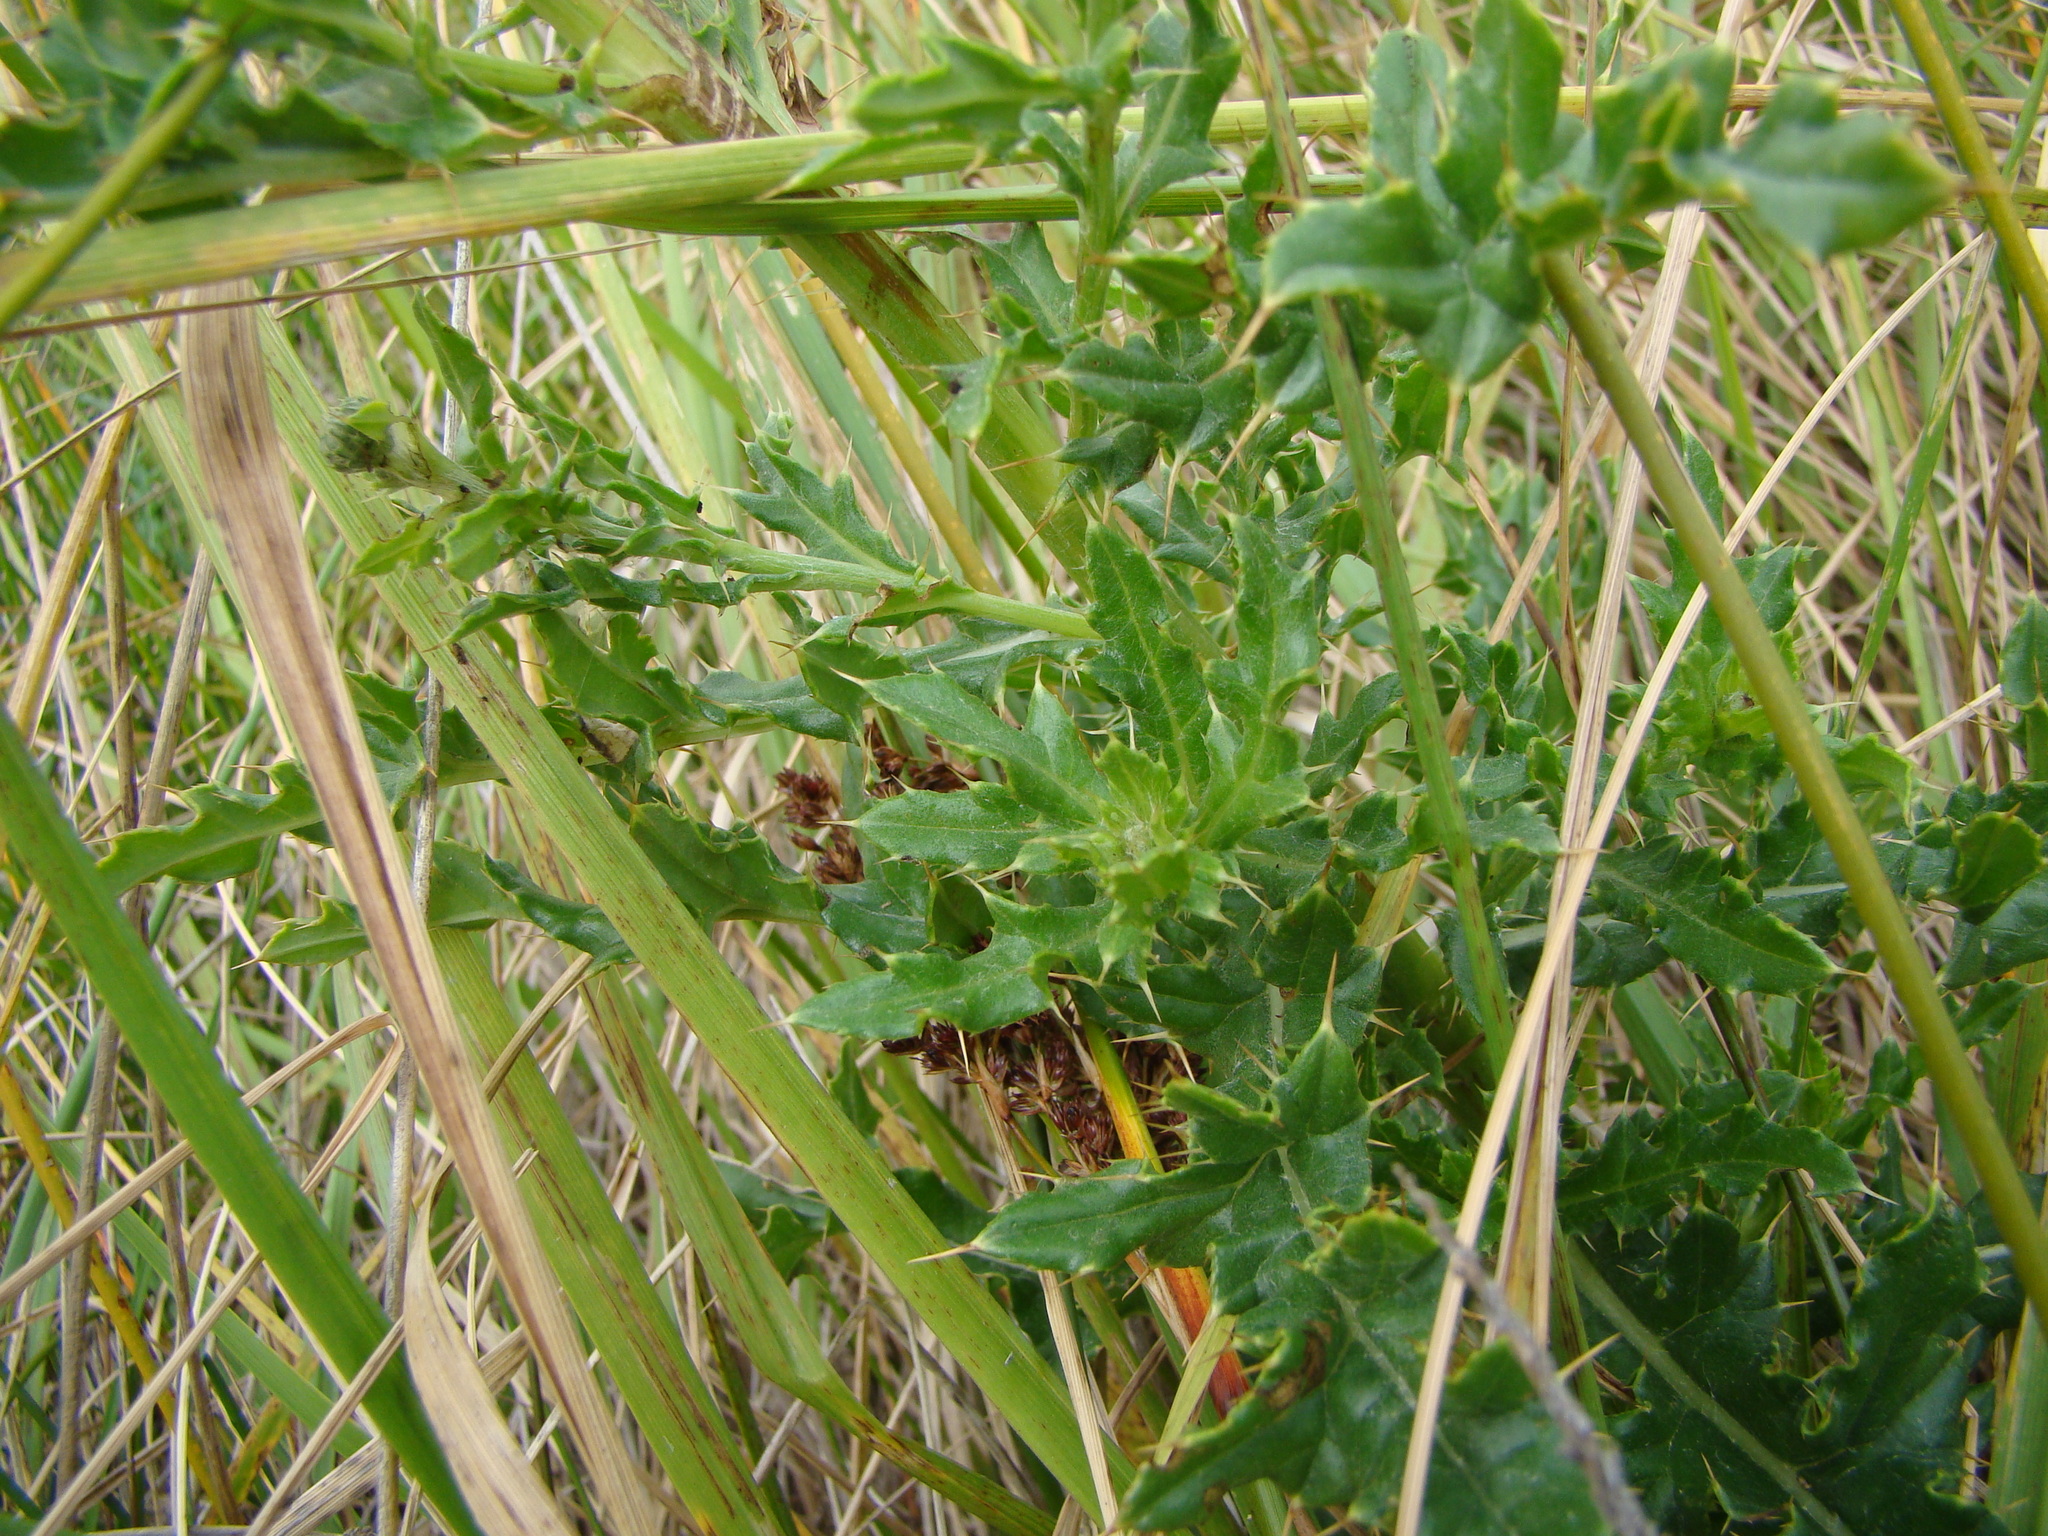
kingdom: Plantae
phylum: Tracheophyta
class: Magnoliopsida
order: Asterales
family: Asteraceae
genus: Cirsium
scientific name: Cirsium arvense
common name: Creeping thistle
